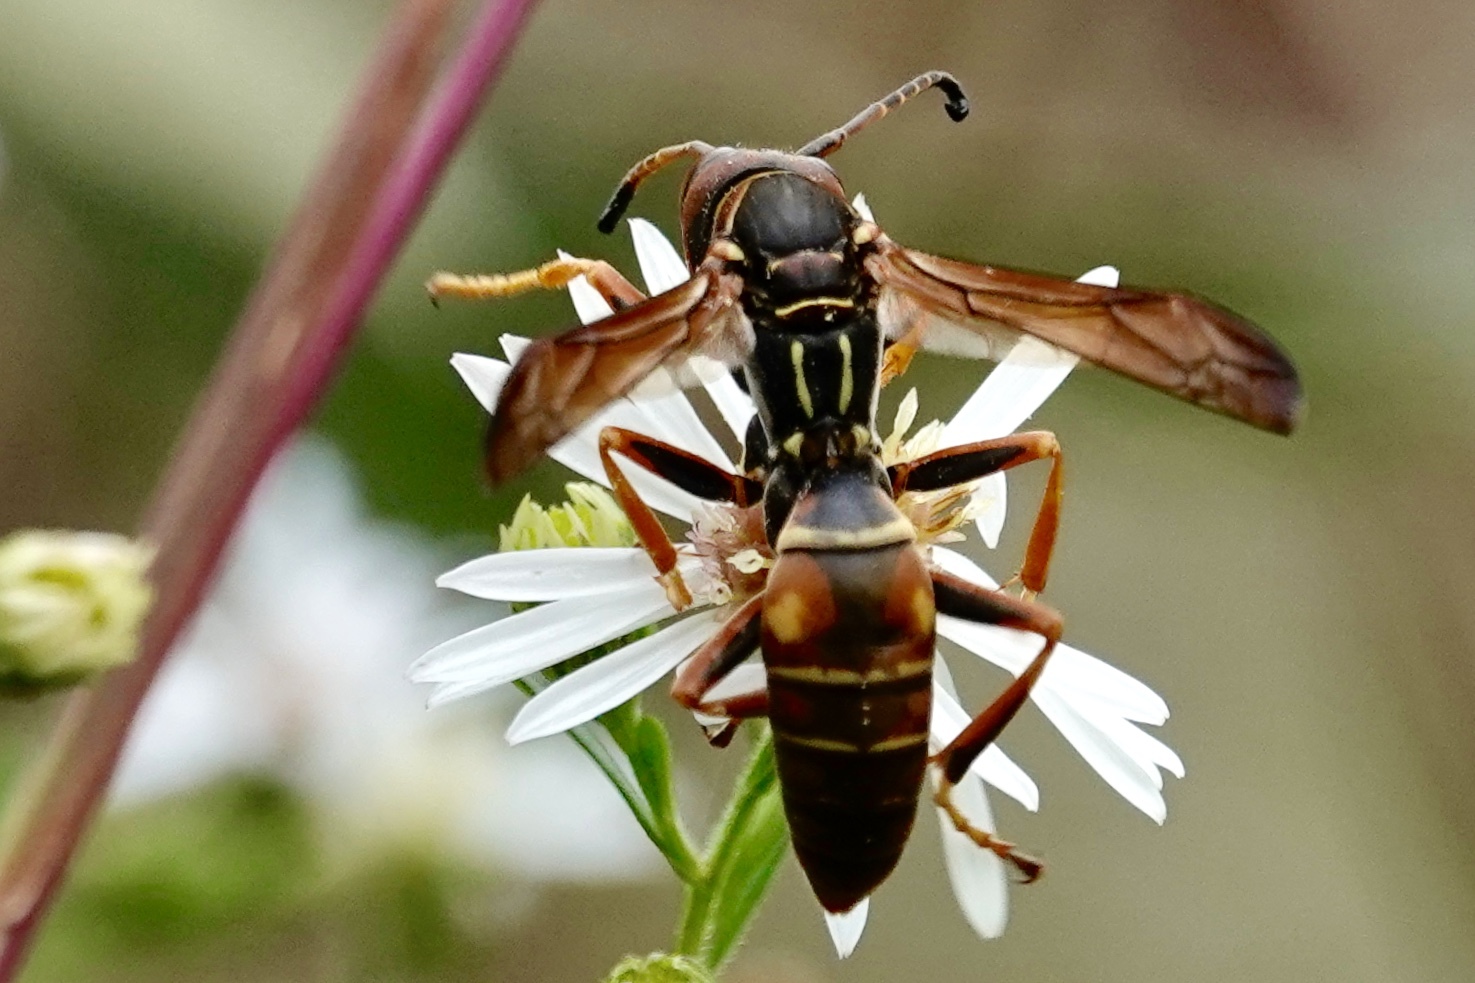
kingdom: Animalia
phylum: Arthropoda
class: Insecta
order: Hymenoptera
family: Eumenidae
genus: Polistes
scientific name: Polistes fuscatus
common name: Dark paper wasp
